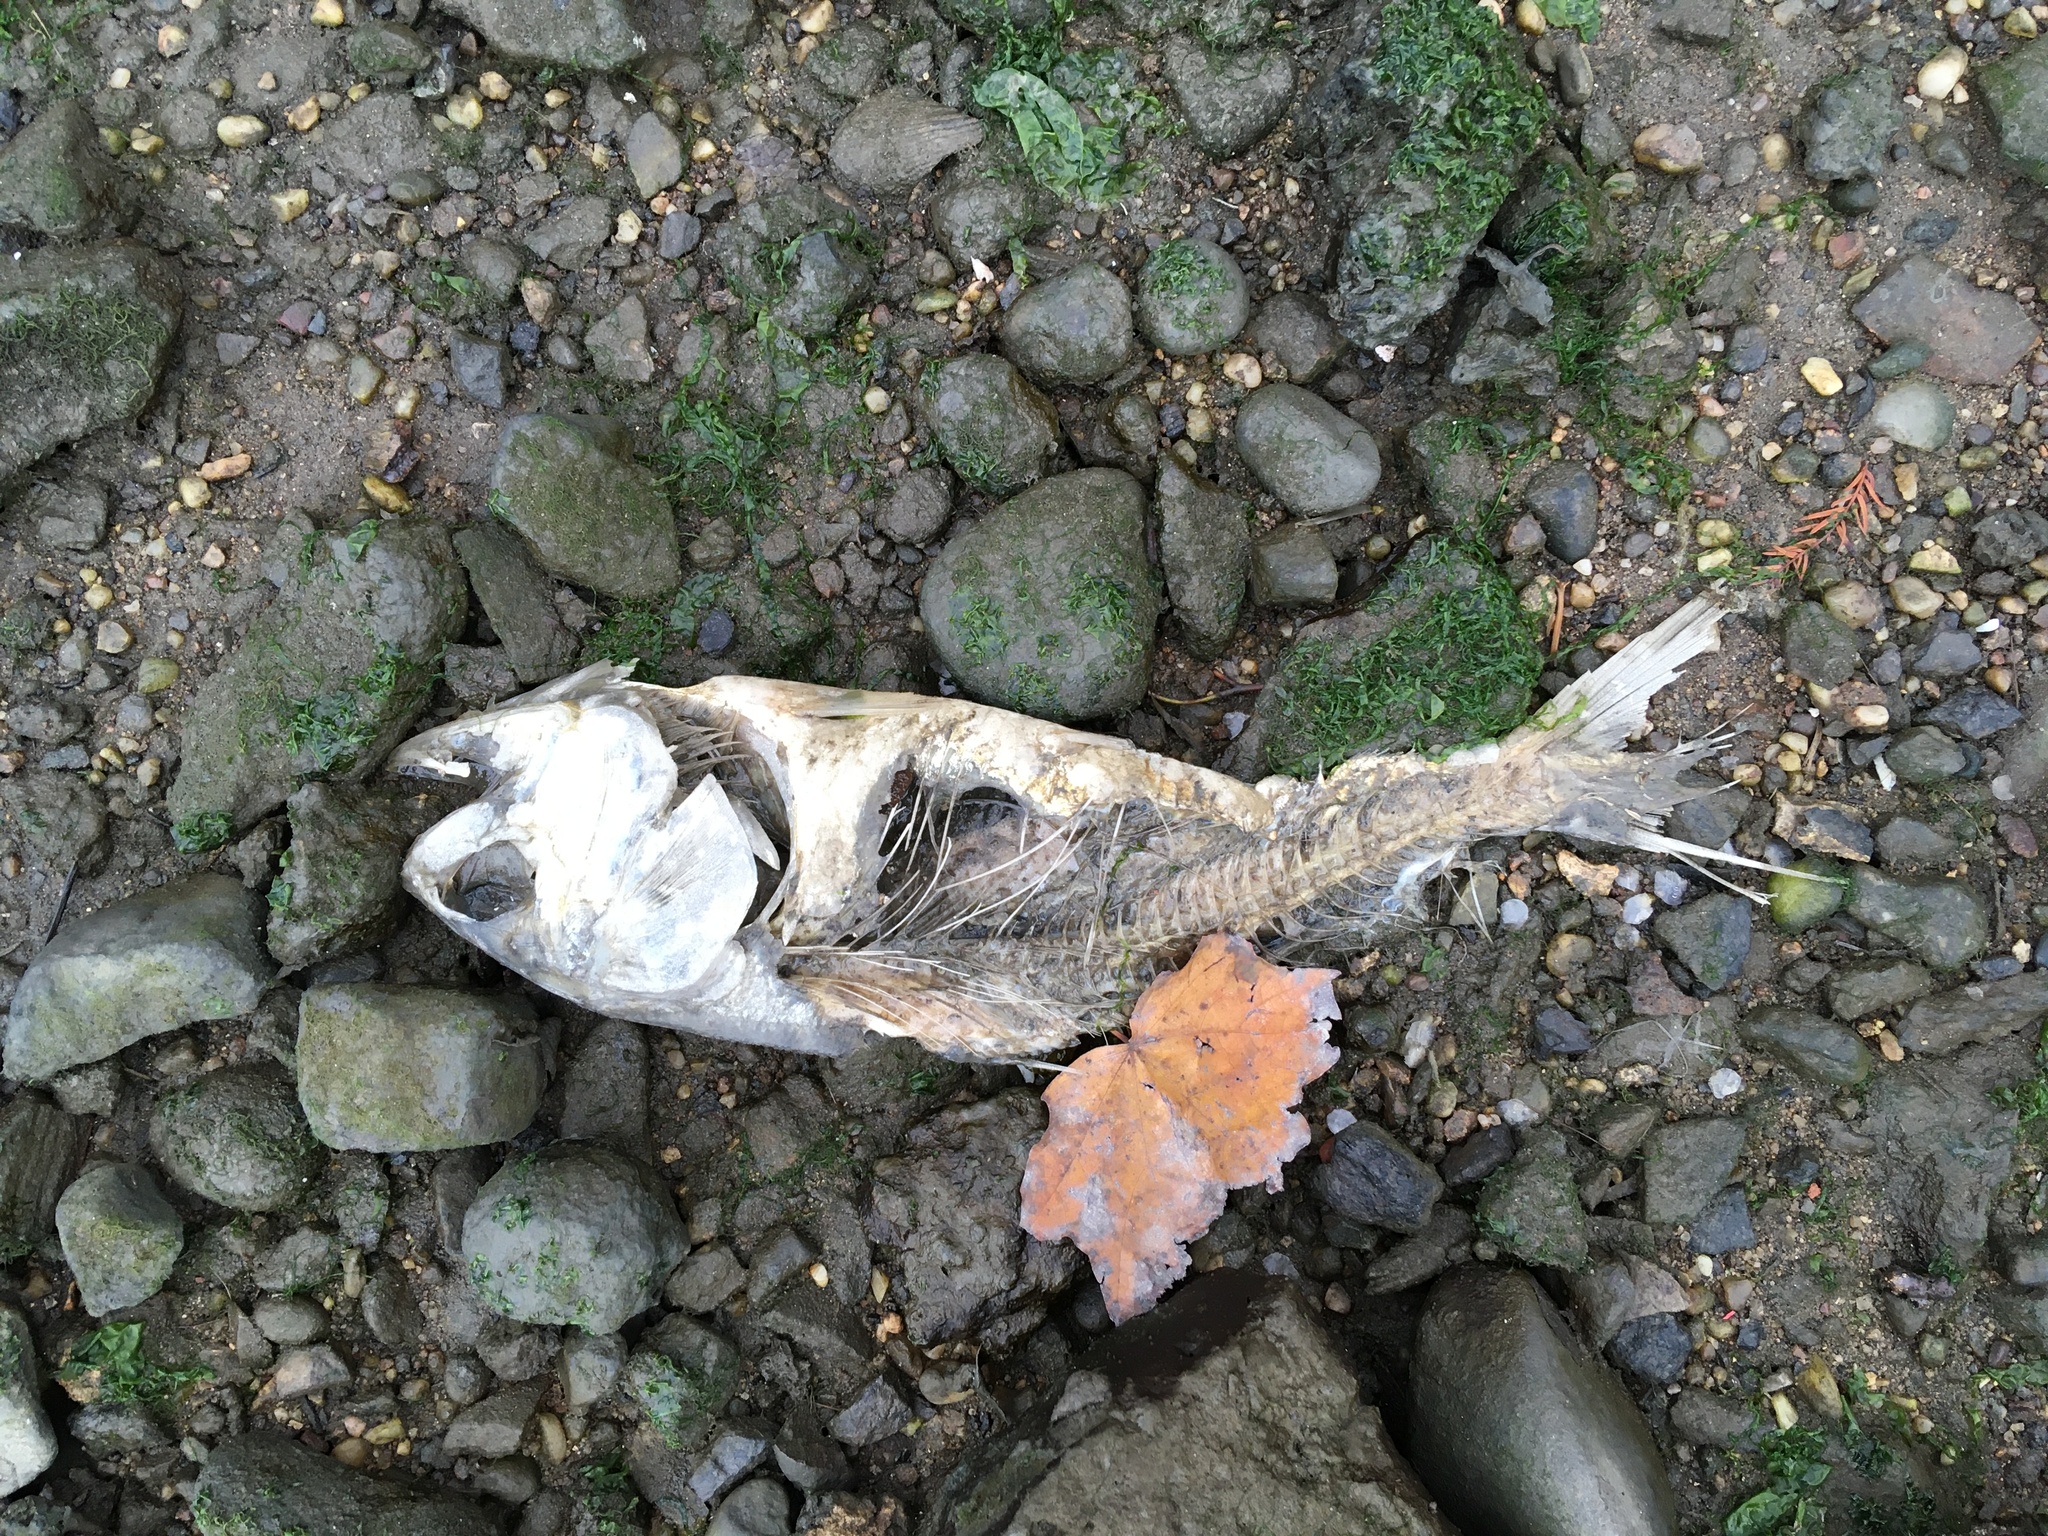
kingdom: Animalia
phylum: Chordata
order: Clupeiformes
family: Clupeidae
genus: Brevoortia
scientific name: Brevoortia tyrannus
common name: Atlantic menhaden
